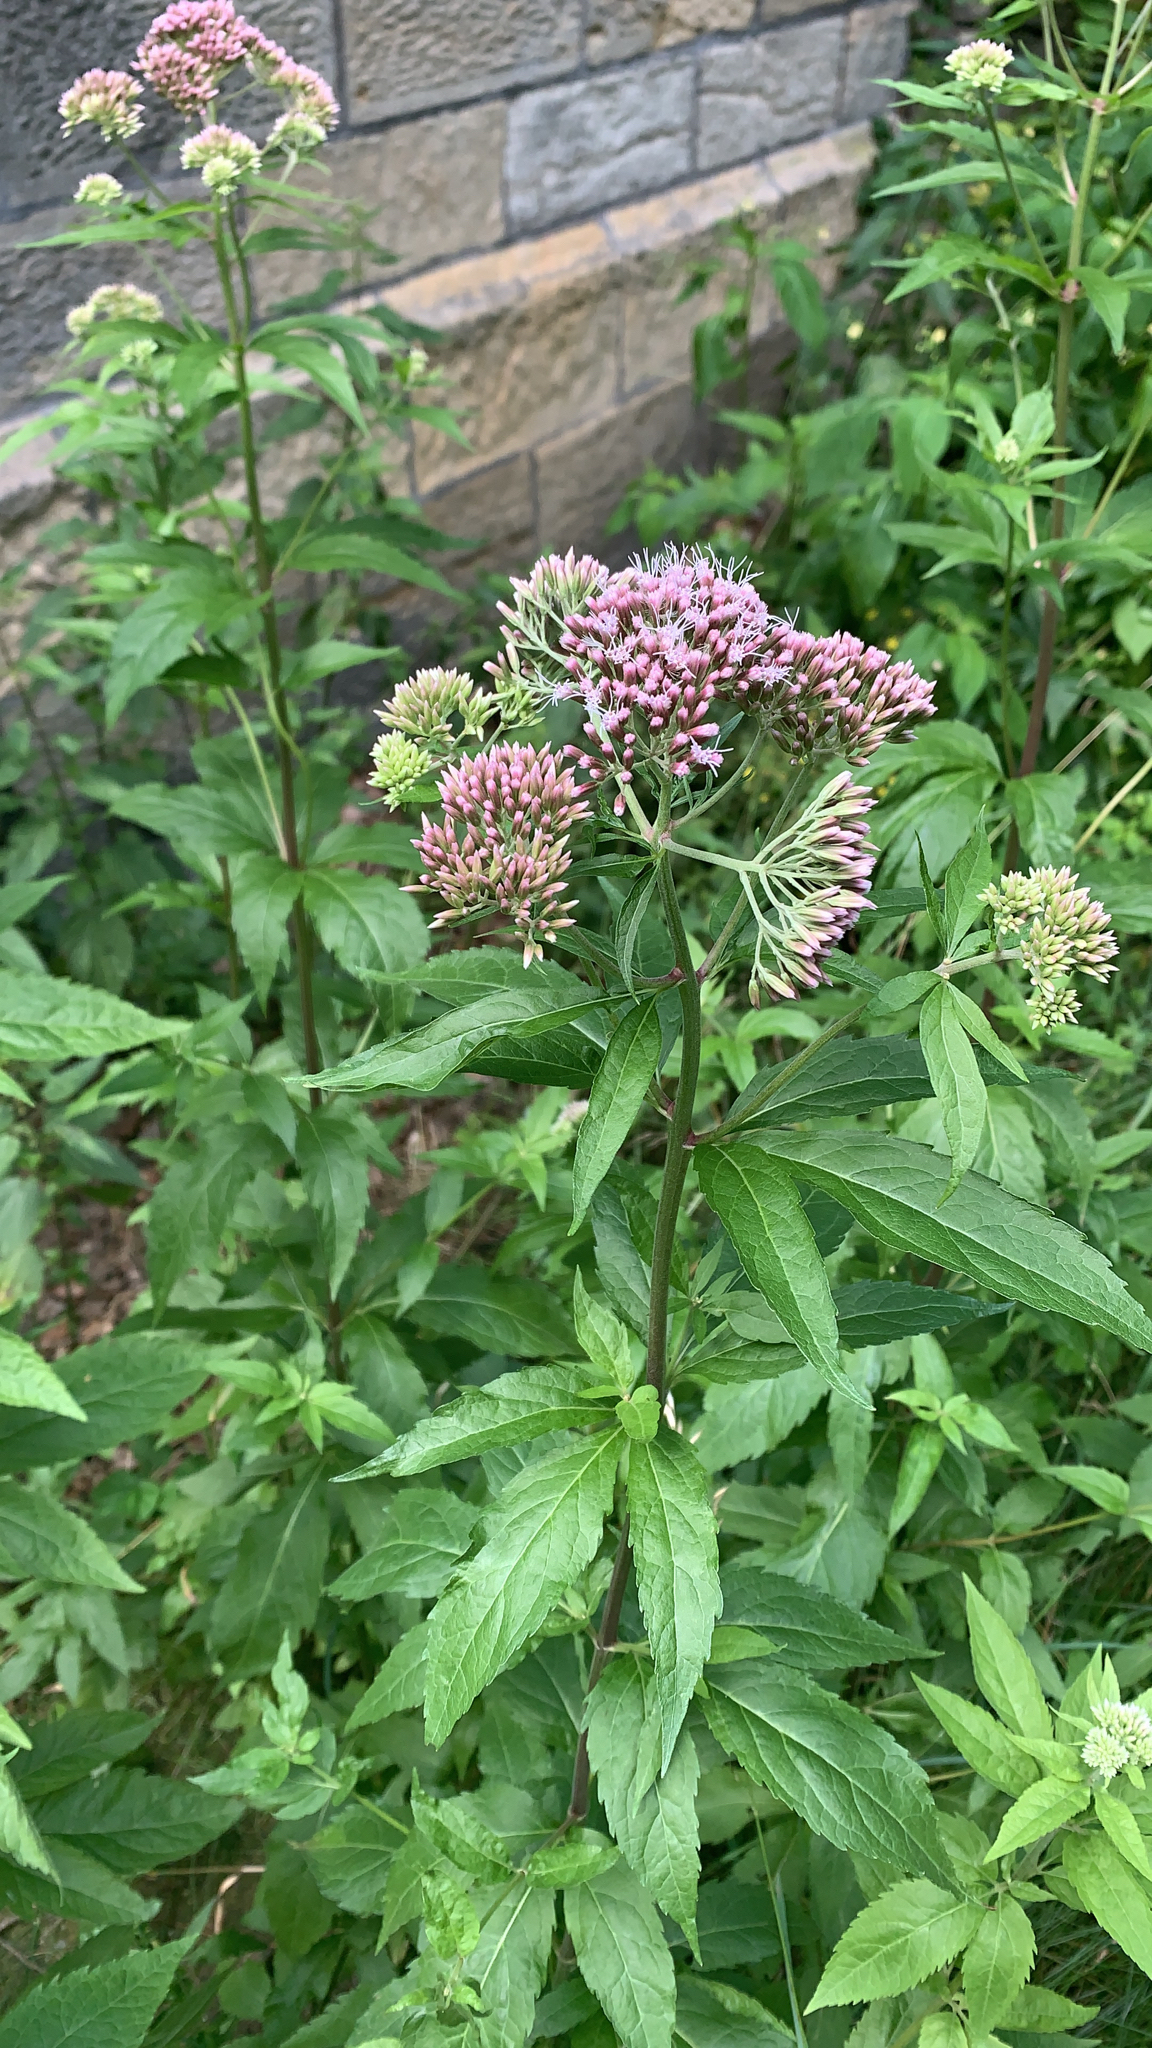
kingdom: Plantae
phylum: Tracheophyta
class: Magnoliopsida
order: Asterales
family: Asteraceae
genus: Eupatorium
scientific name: Eupatorium cannabinum
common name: Hemp-agrimony
